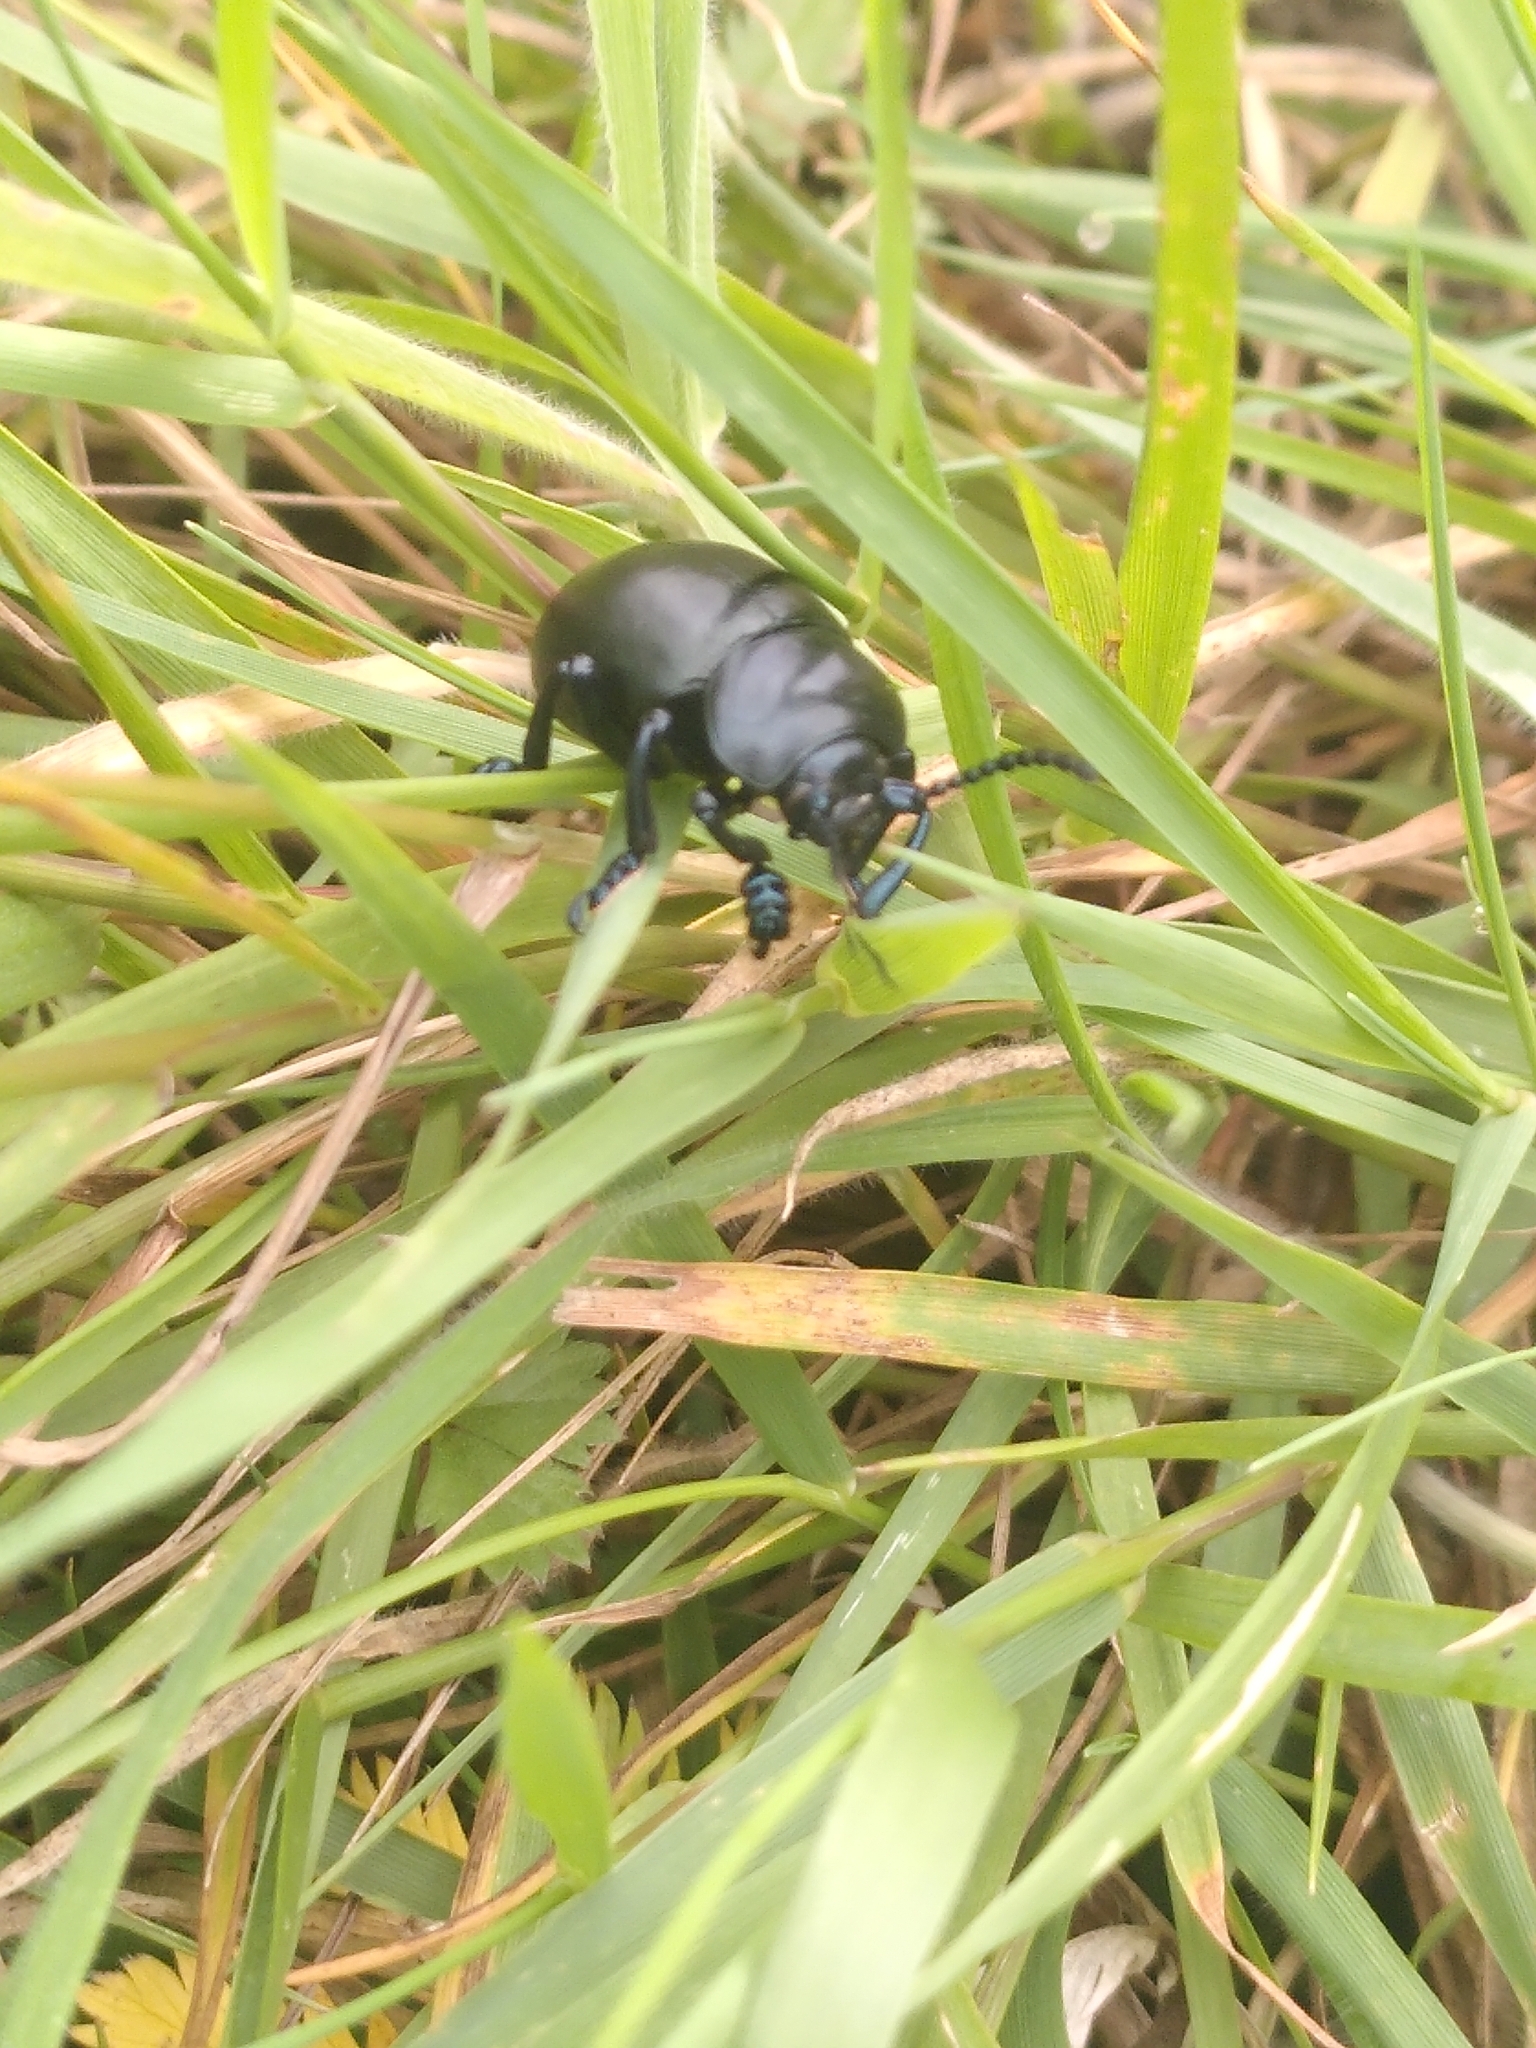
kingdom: Animalia
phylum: Arthropoda
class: Insecta
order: Coleoptera
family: Chrysomelidae
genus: Timarcha
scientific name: Timarcha tenebricosa
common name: Bloody-nosed beetle
